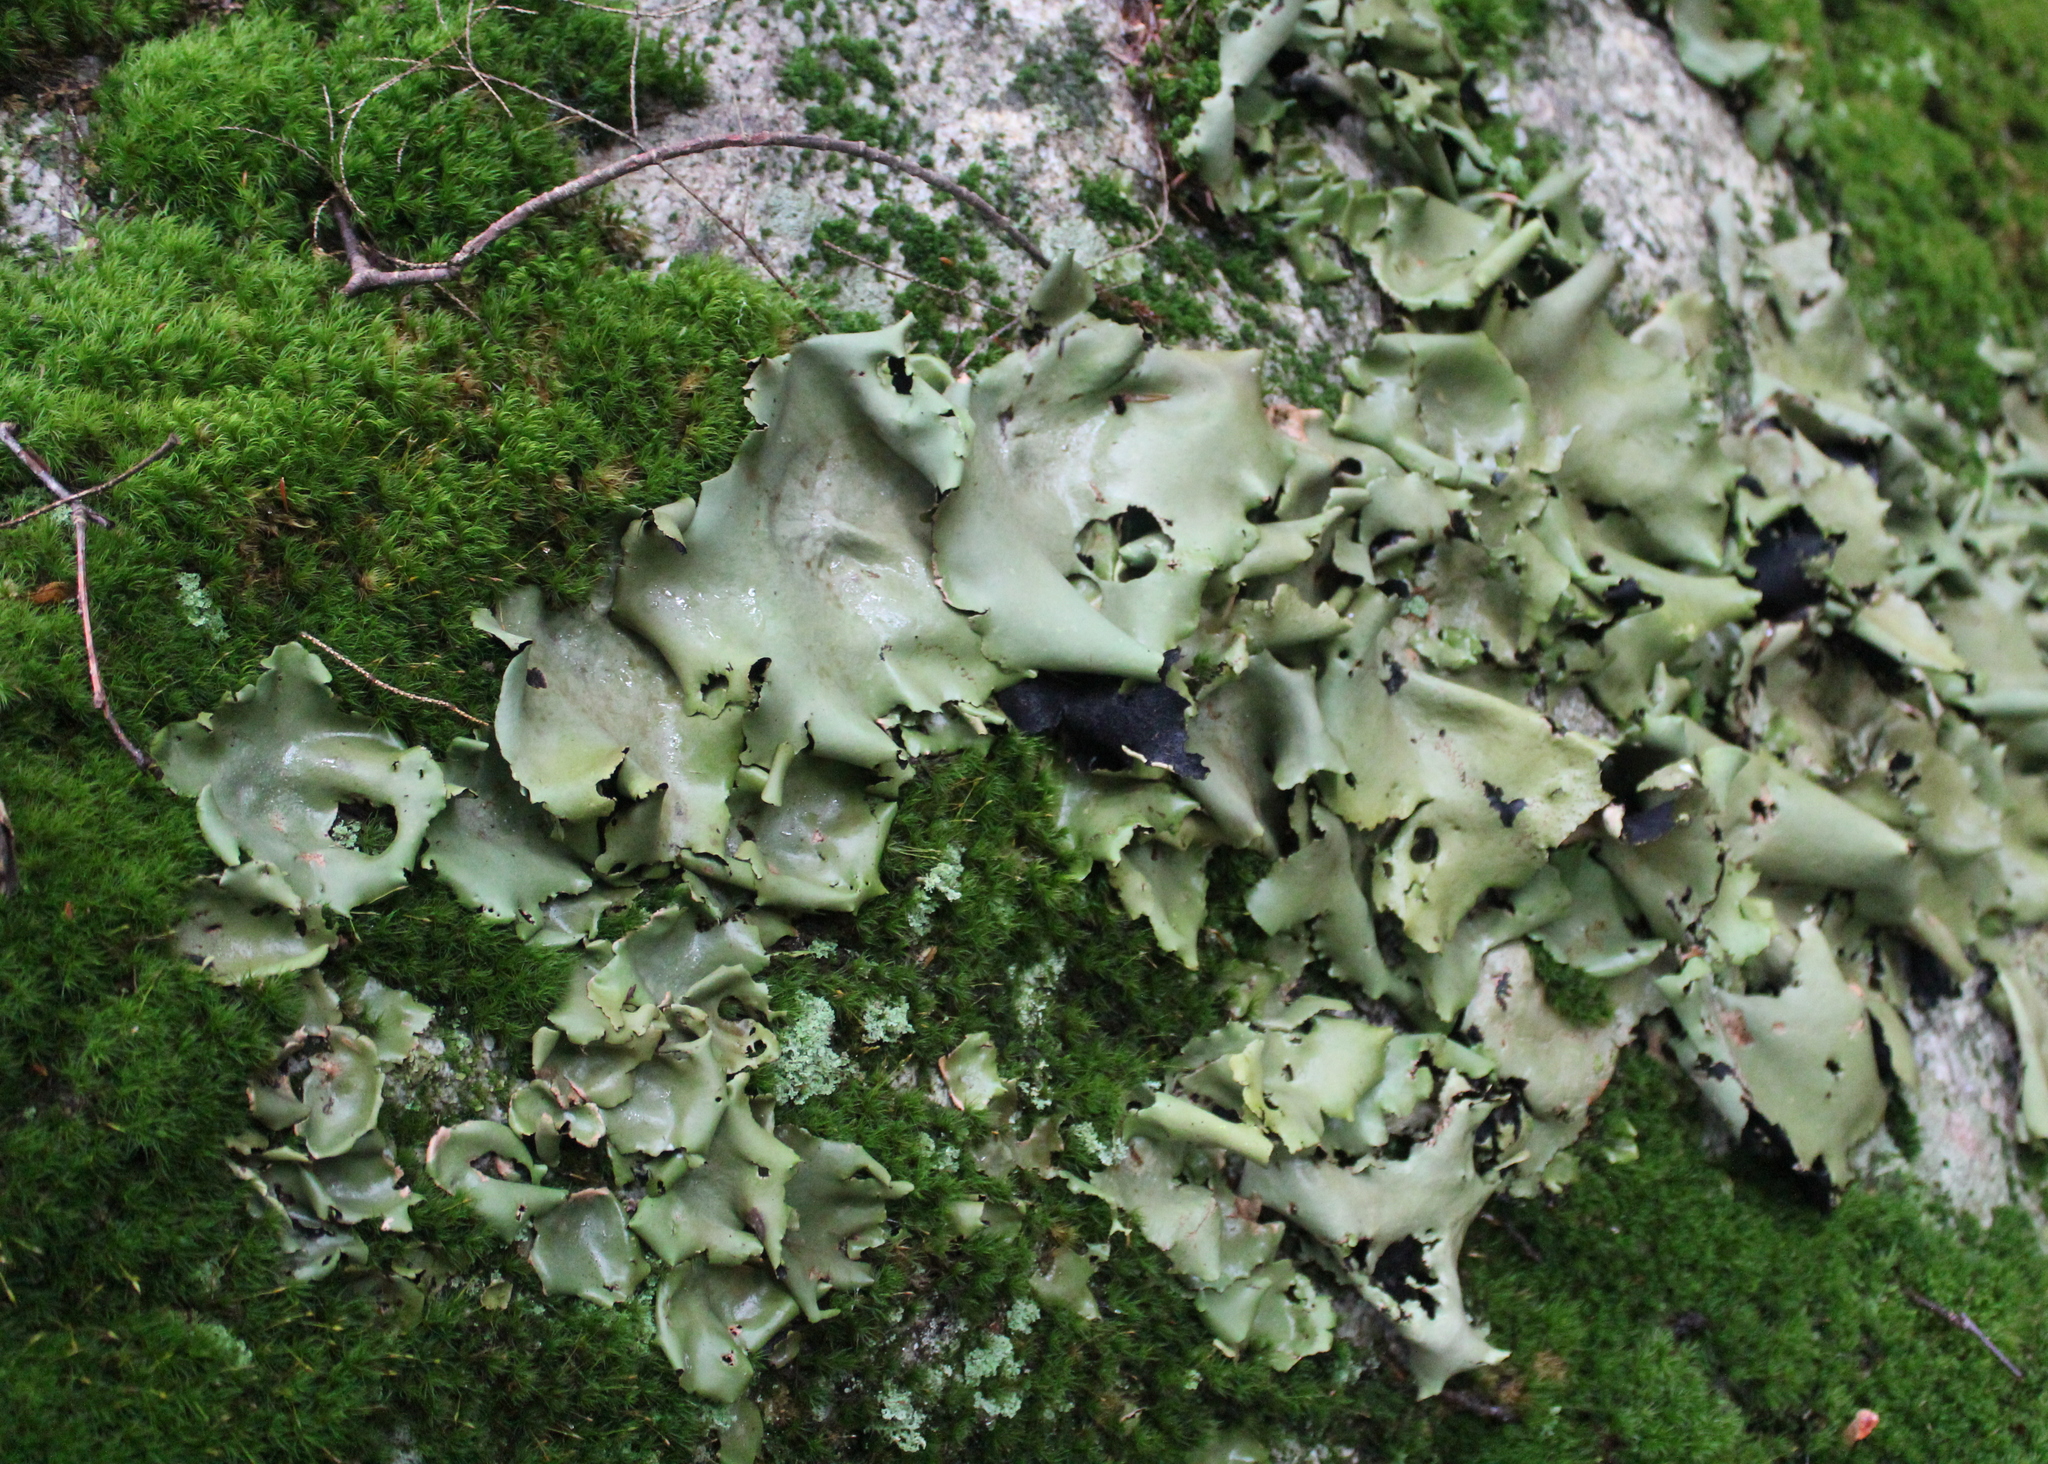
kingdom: Fungi
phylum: Ascomycota
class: Lecanoromycetes
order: Umbilicariales
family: Umbilicariaceae
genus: Umbilicaria
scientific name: Umbilicaria mammulata
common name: Smooth rock tripe
